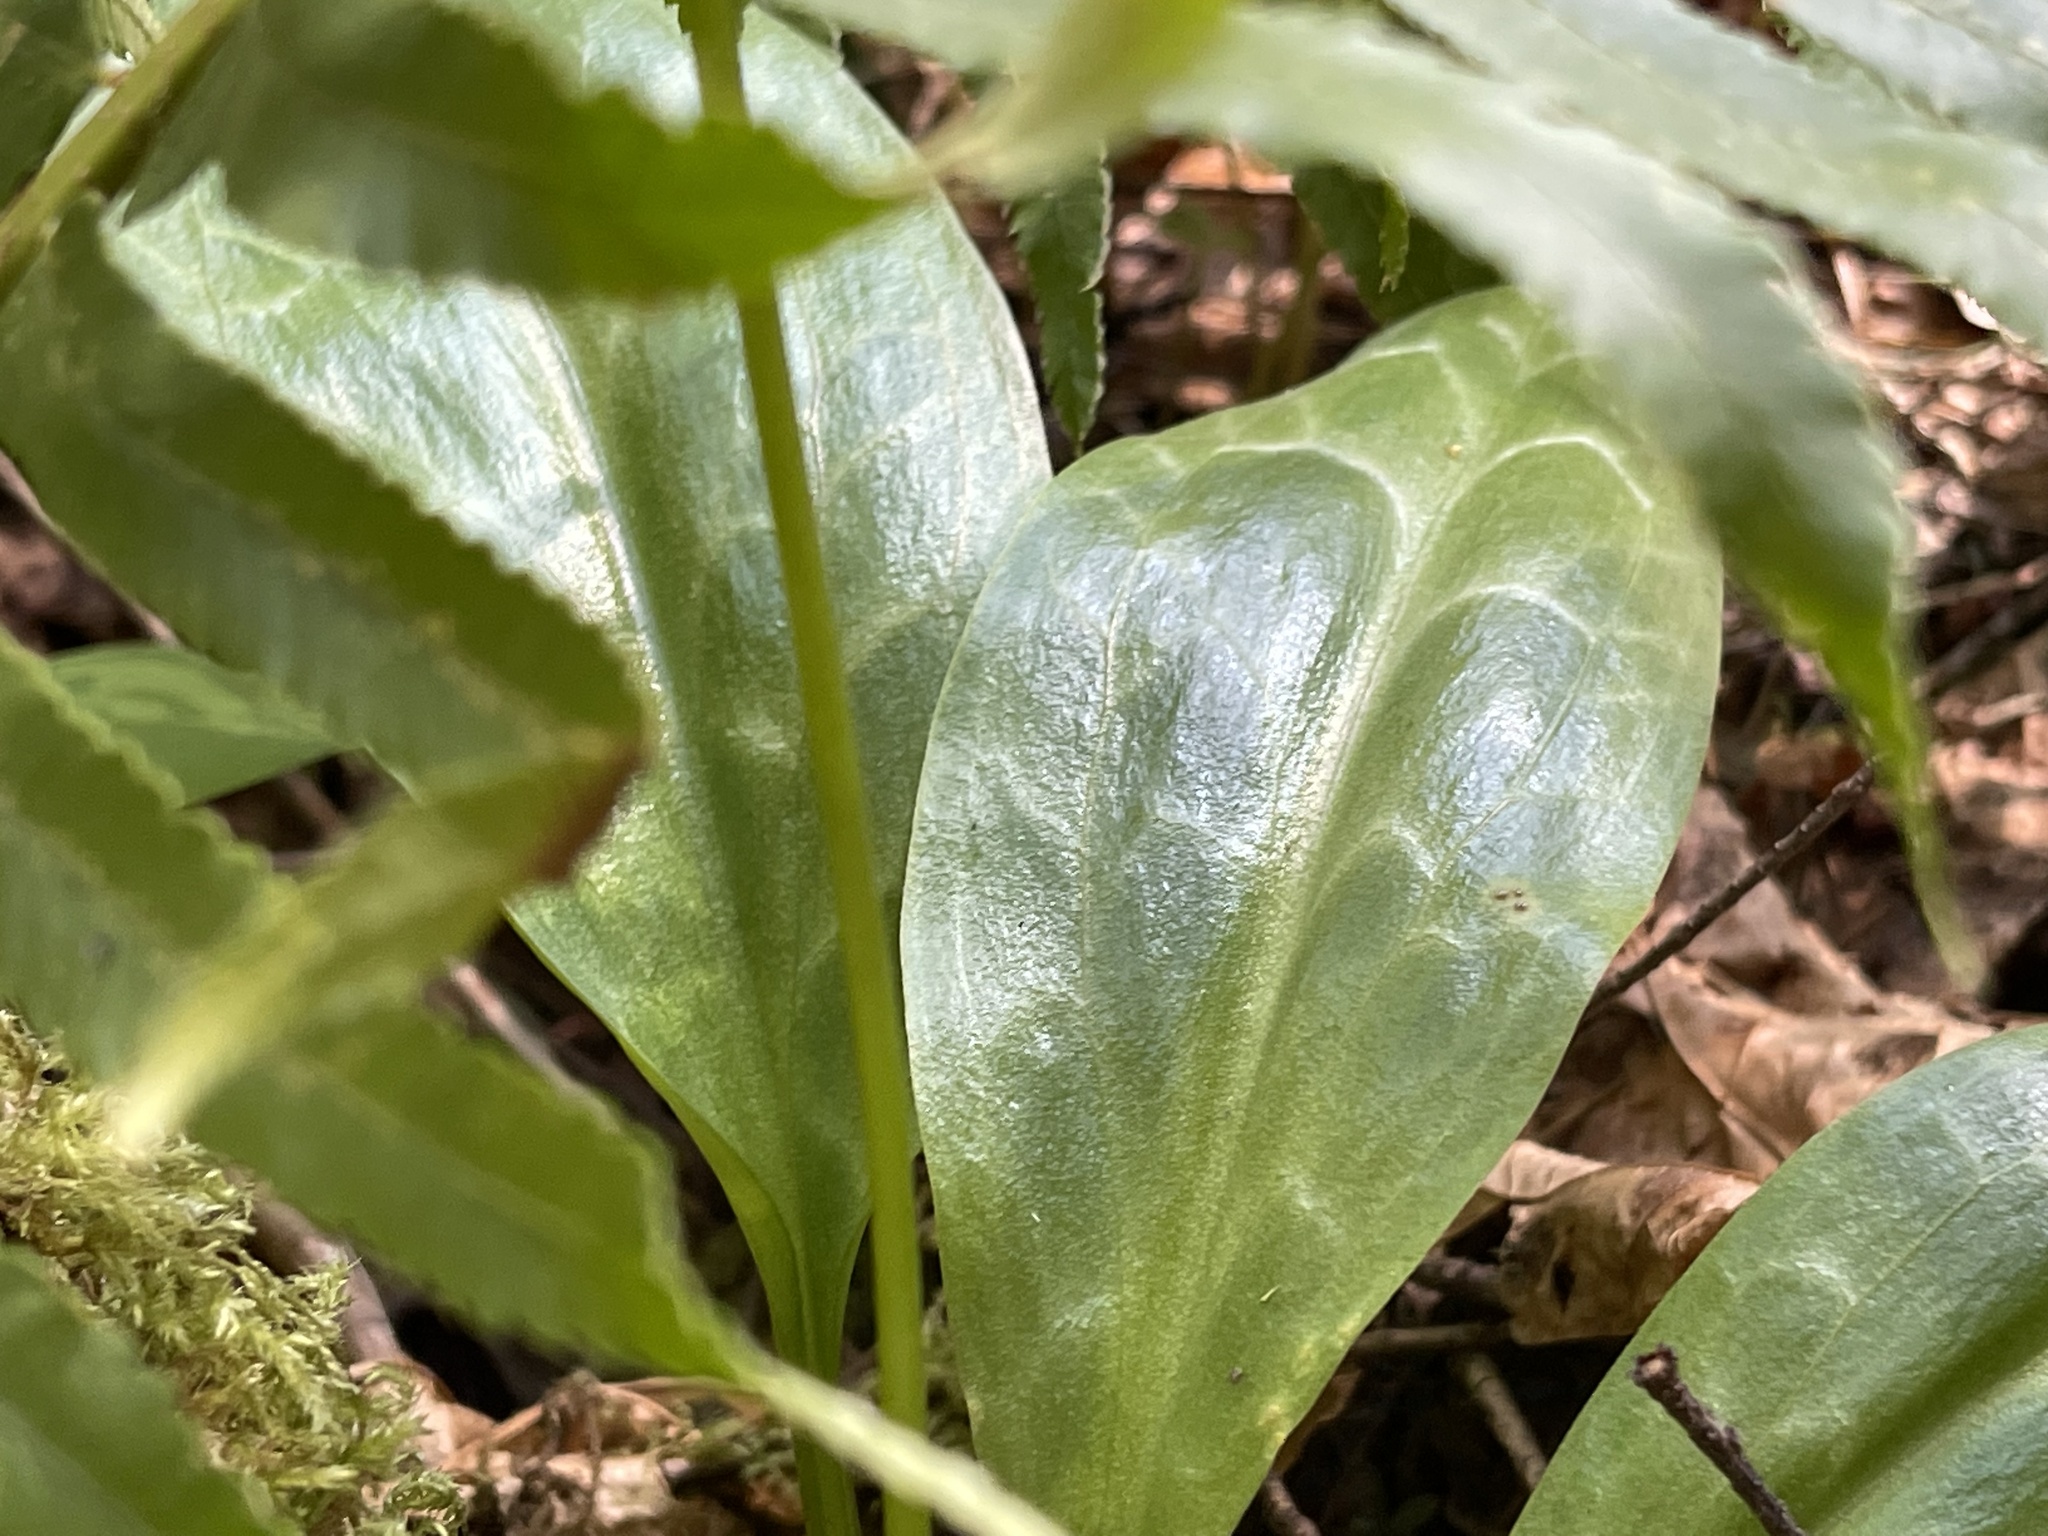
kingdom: Plantae
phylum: Tracheophyta
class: Liliopsida
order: Liliales
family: Liliaceae
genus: Erythronium
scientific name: Erythronium revolutum
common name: Pink fawn-lily
